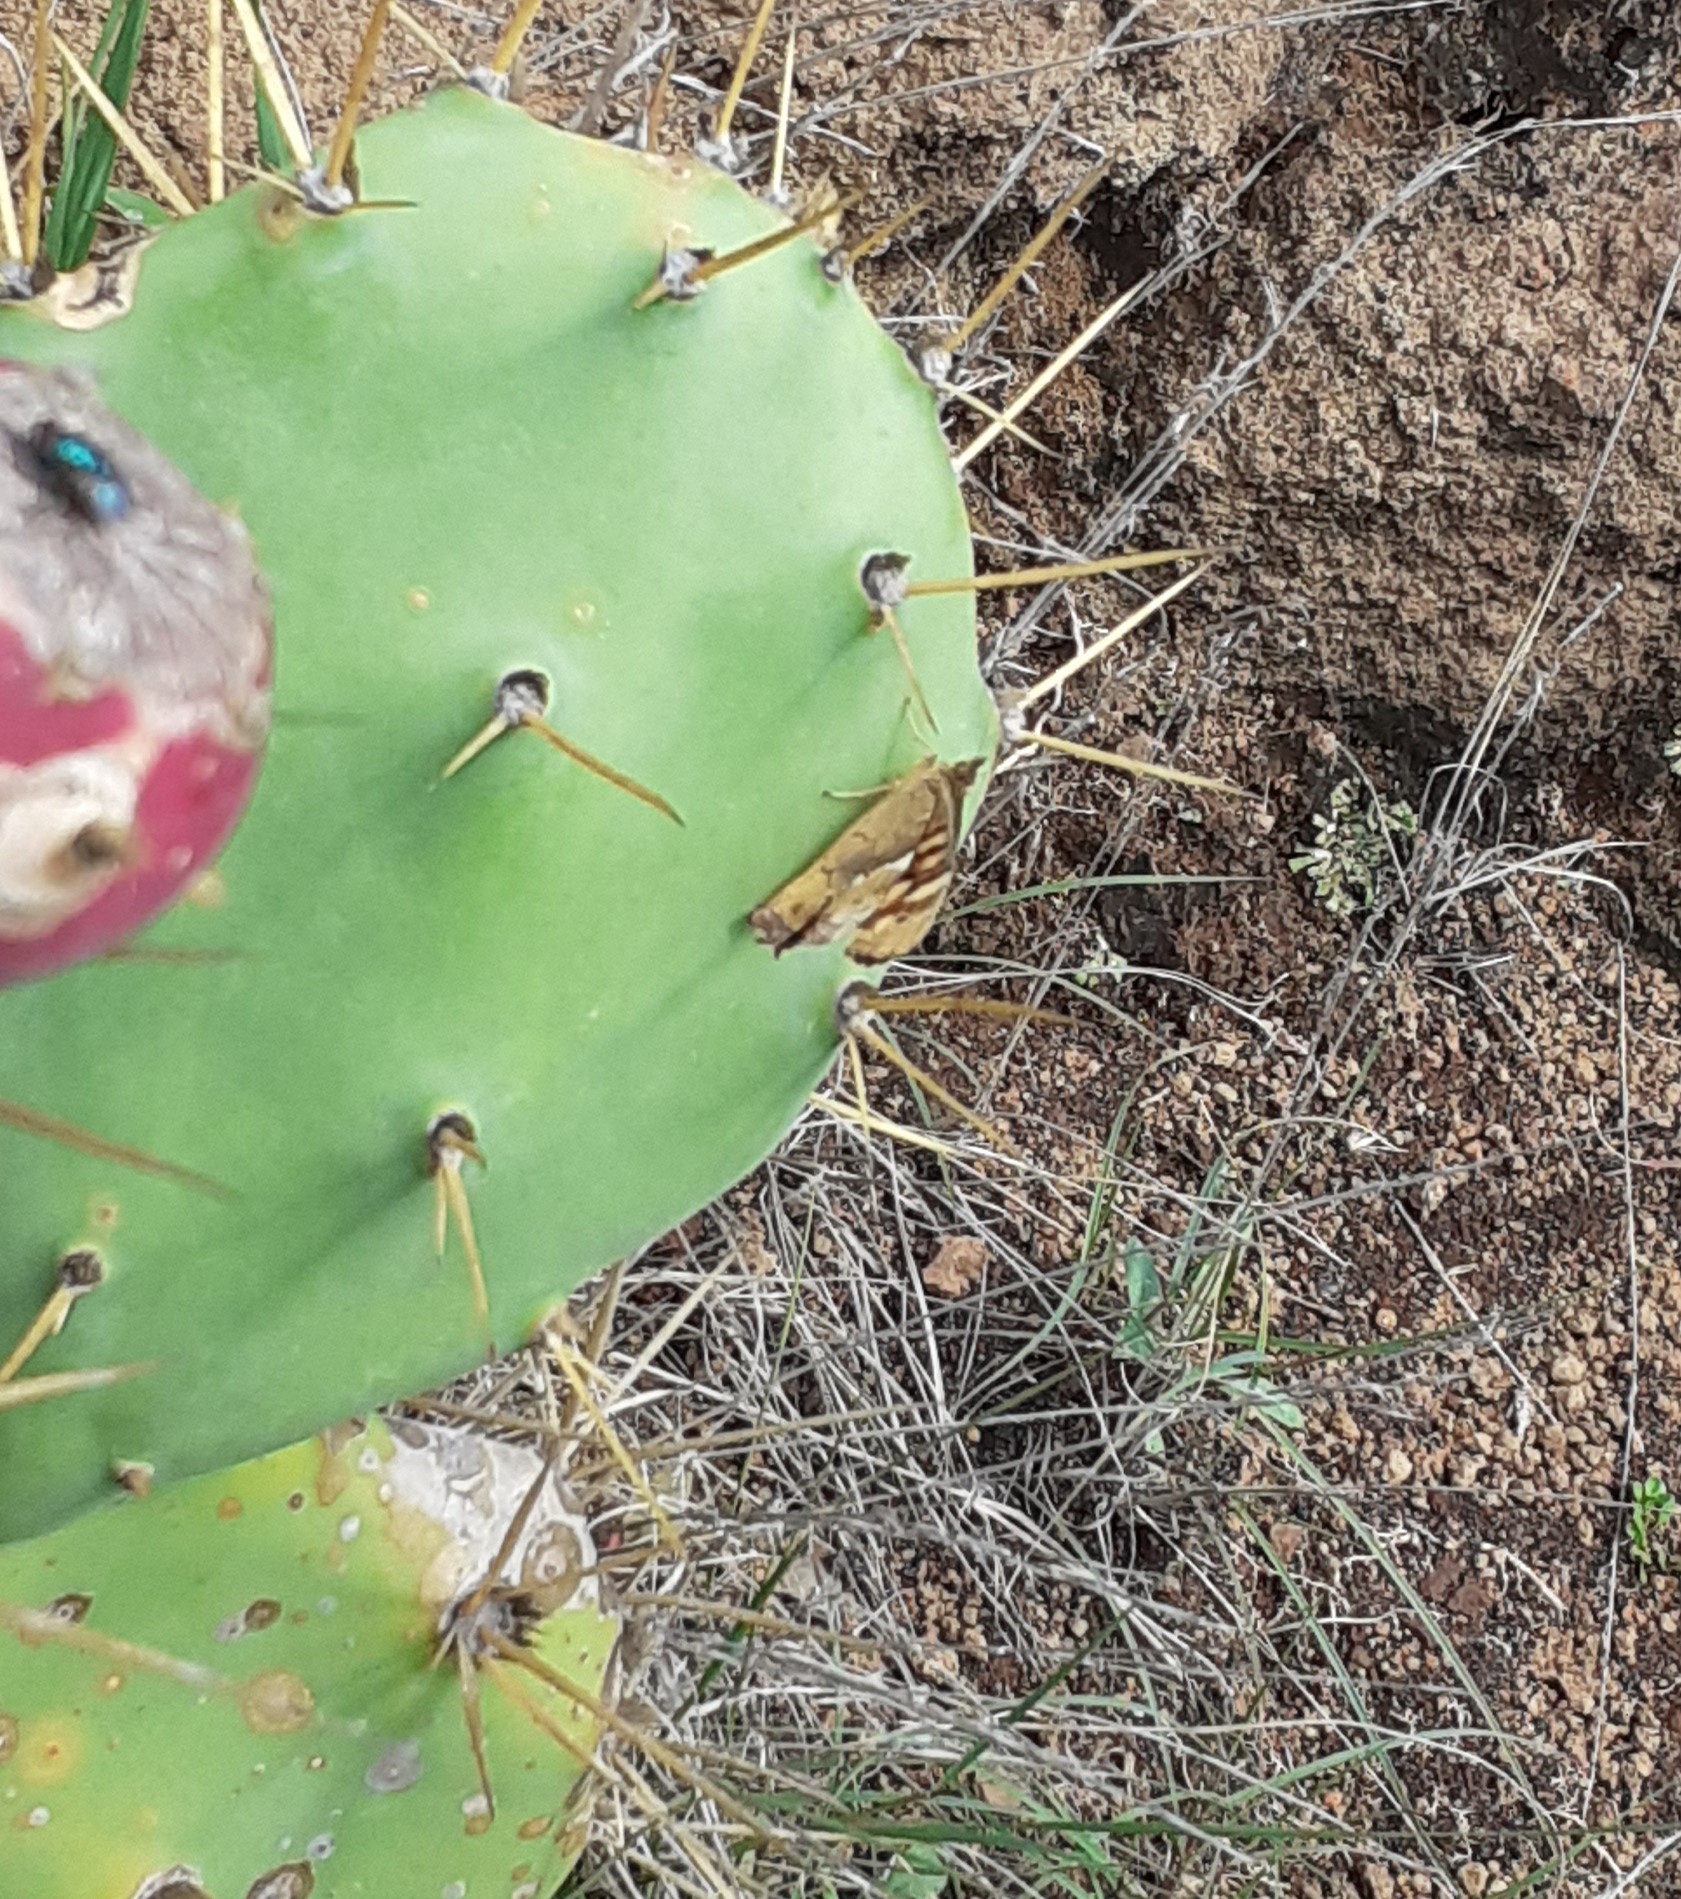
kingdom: Animalia
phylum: Arthropoda
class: Insecta
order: Lepidoptera
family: Nymphalidae
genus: Pararge
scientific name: Pararge aegeria
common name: Speckled wood
